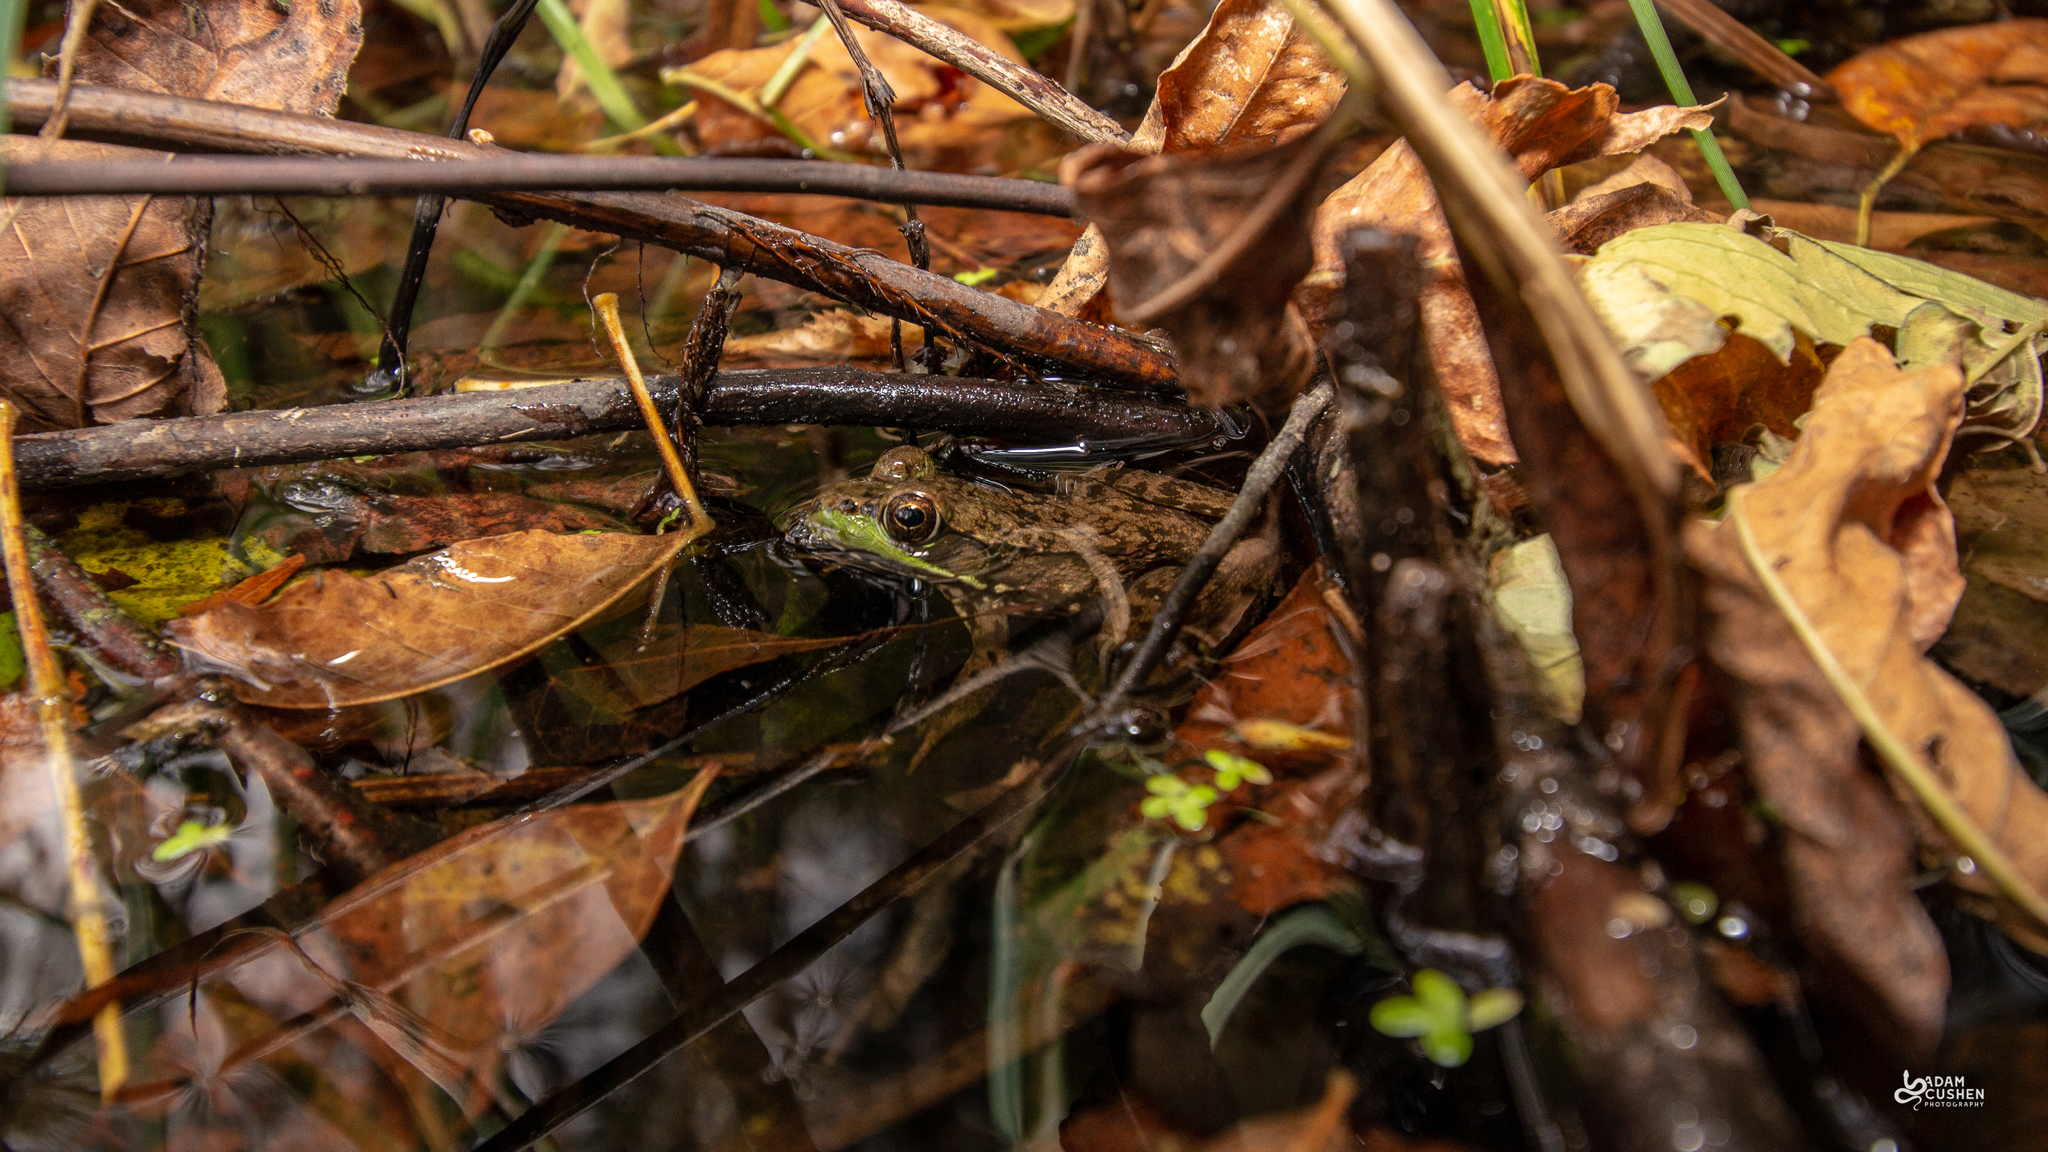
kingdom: Animalia
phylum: Chordata
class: Amphibia
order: Anura
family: Ranidae
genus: Lithobates
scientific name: Lithobates clamitans
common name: Green frog
